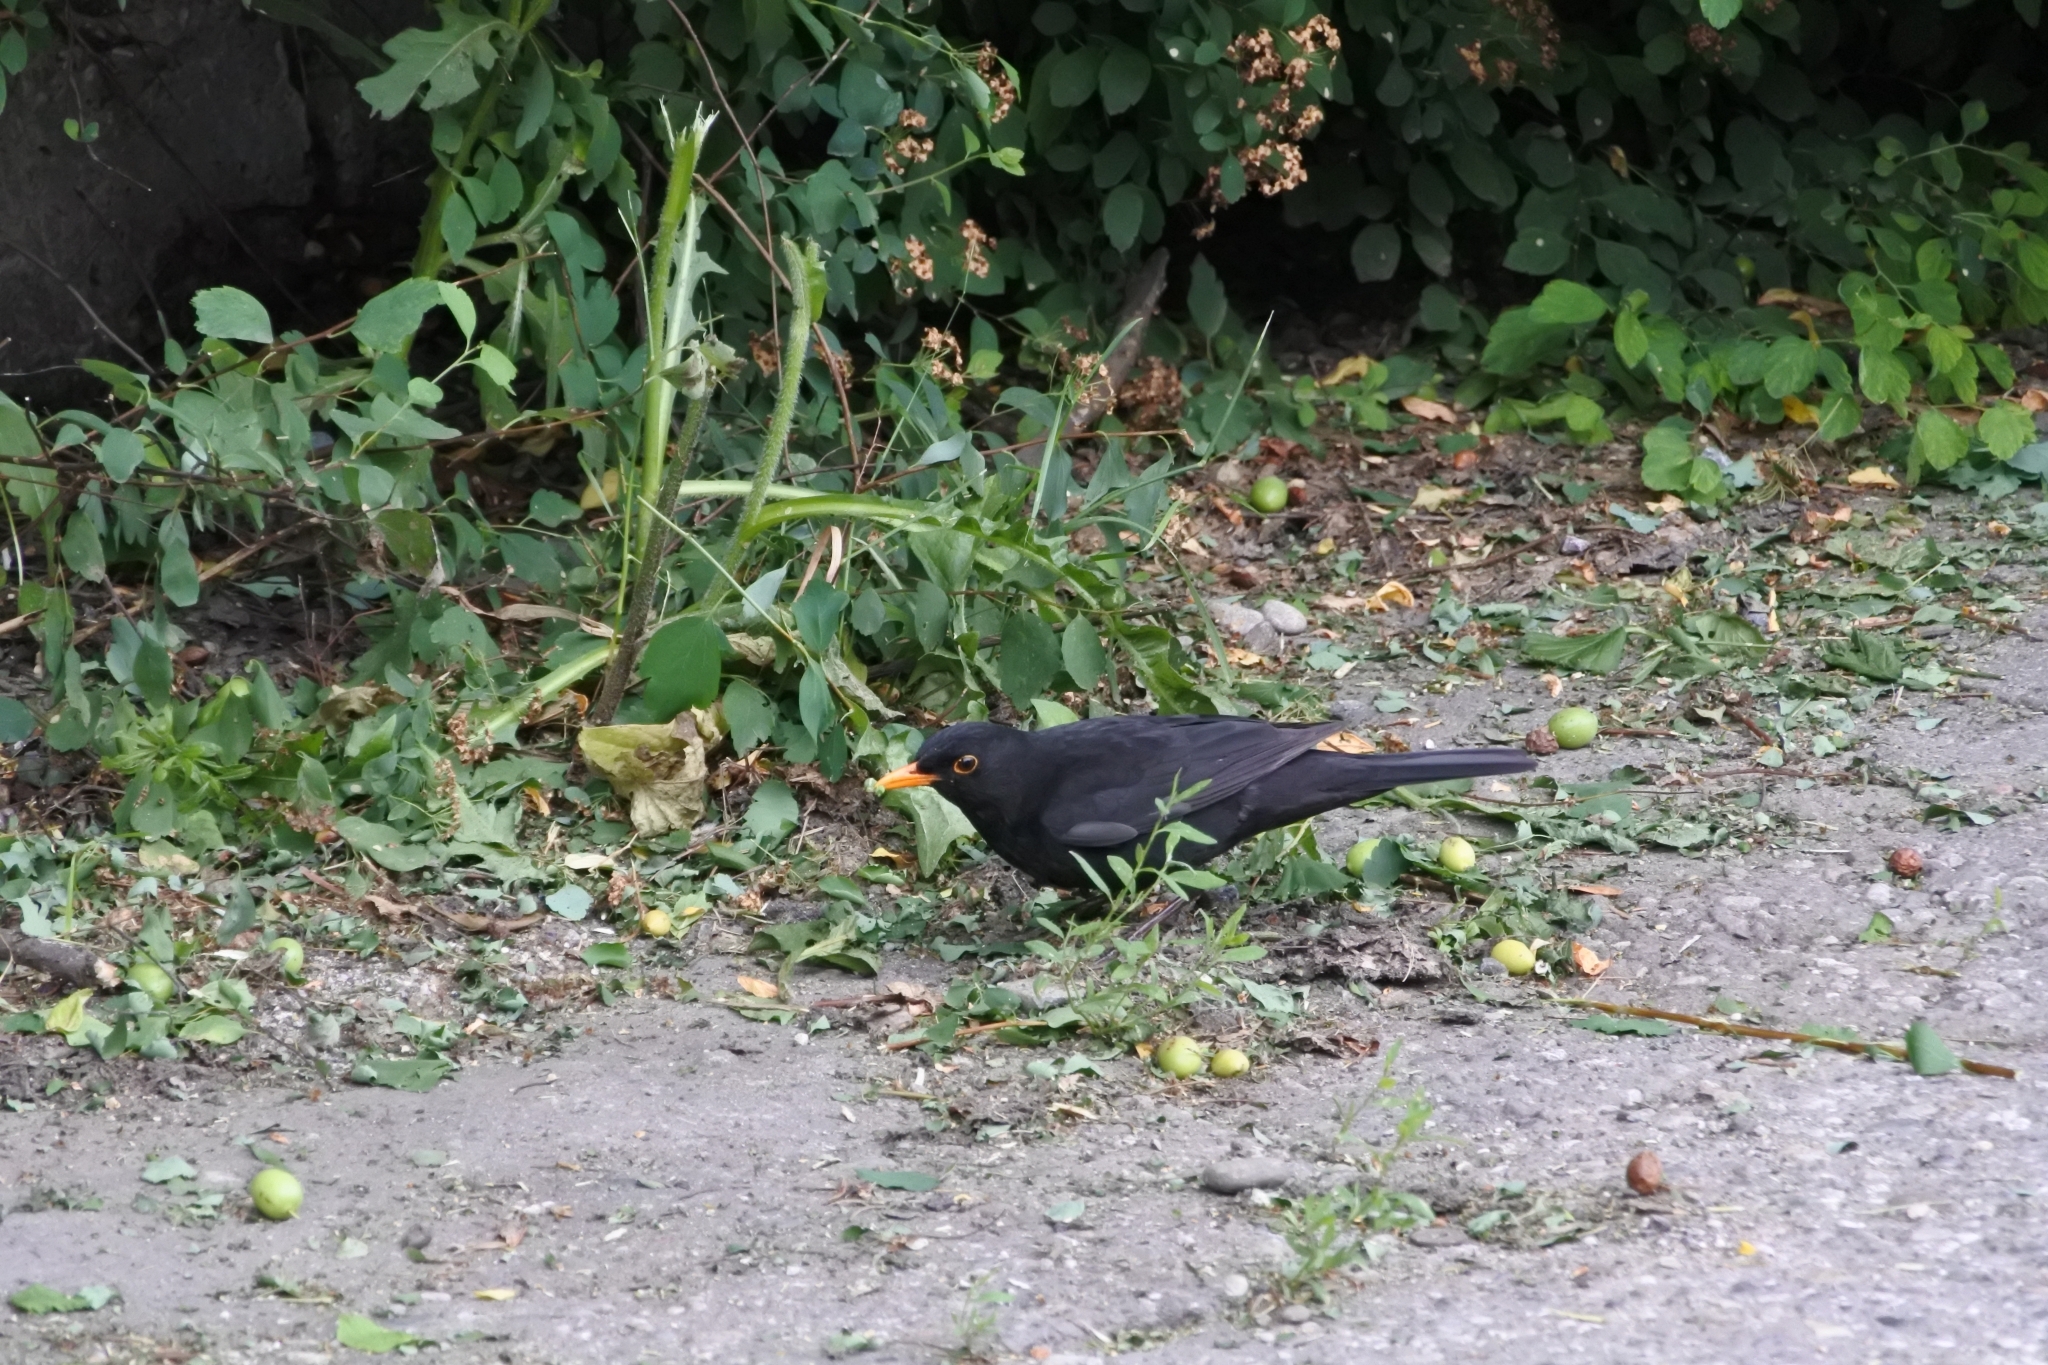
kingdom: Animalia
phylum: Chordata
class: Aves
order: Passeriformes
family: Turdidae
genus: Turdus
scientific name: Turdus merula
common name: Common blackbird
